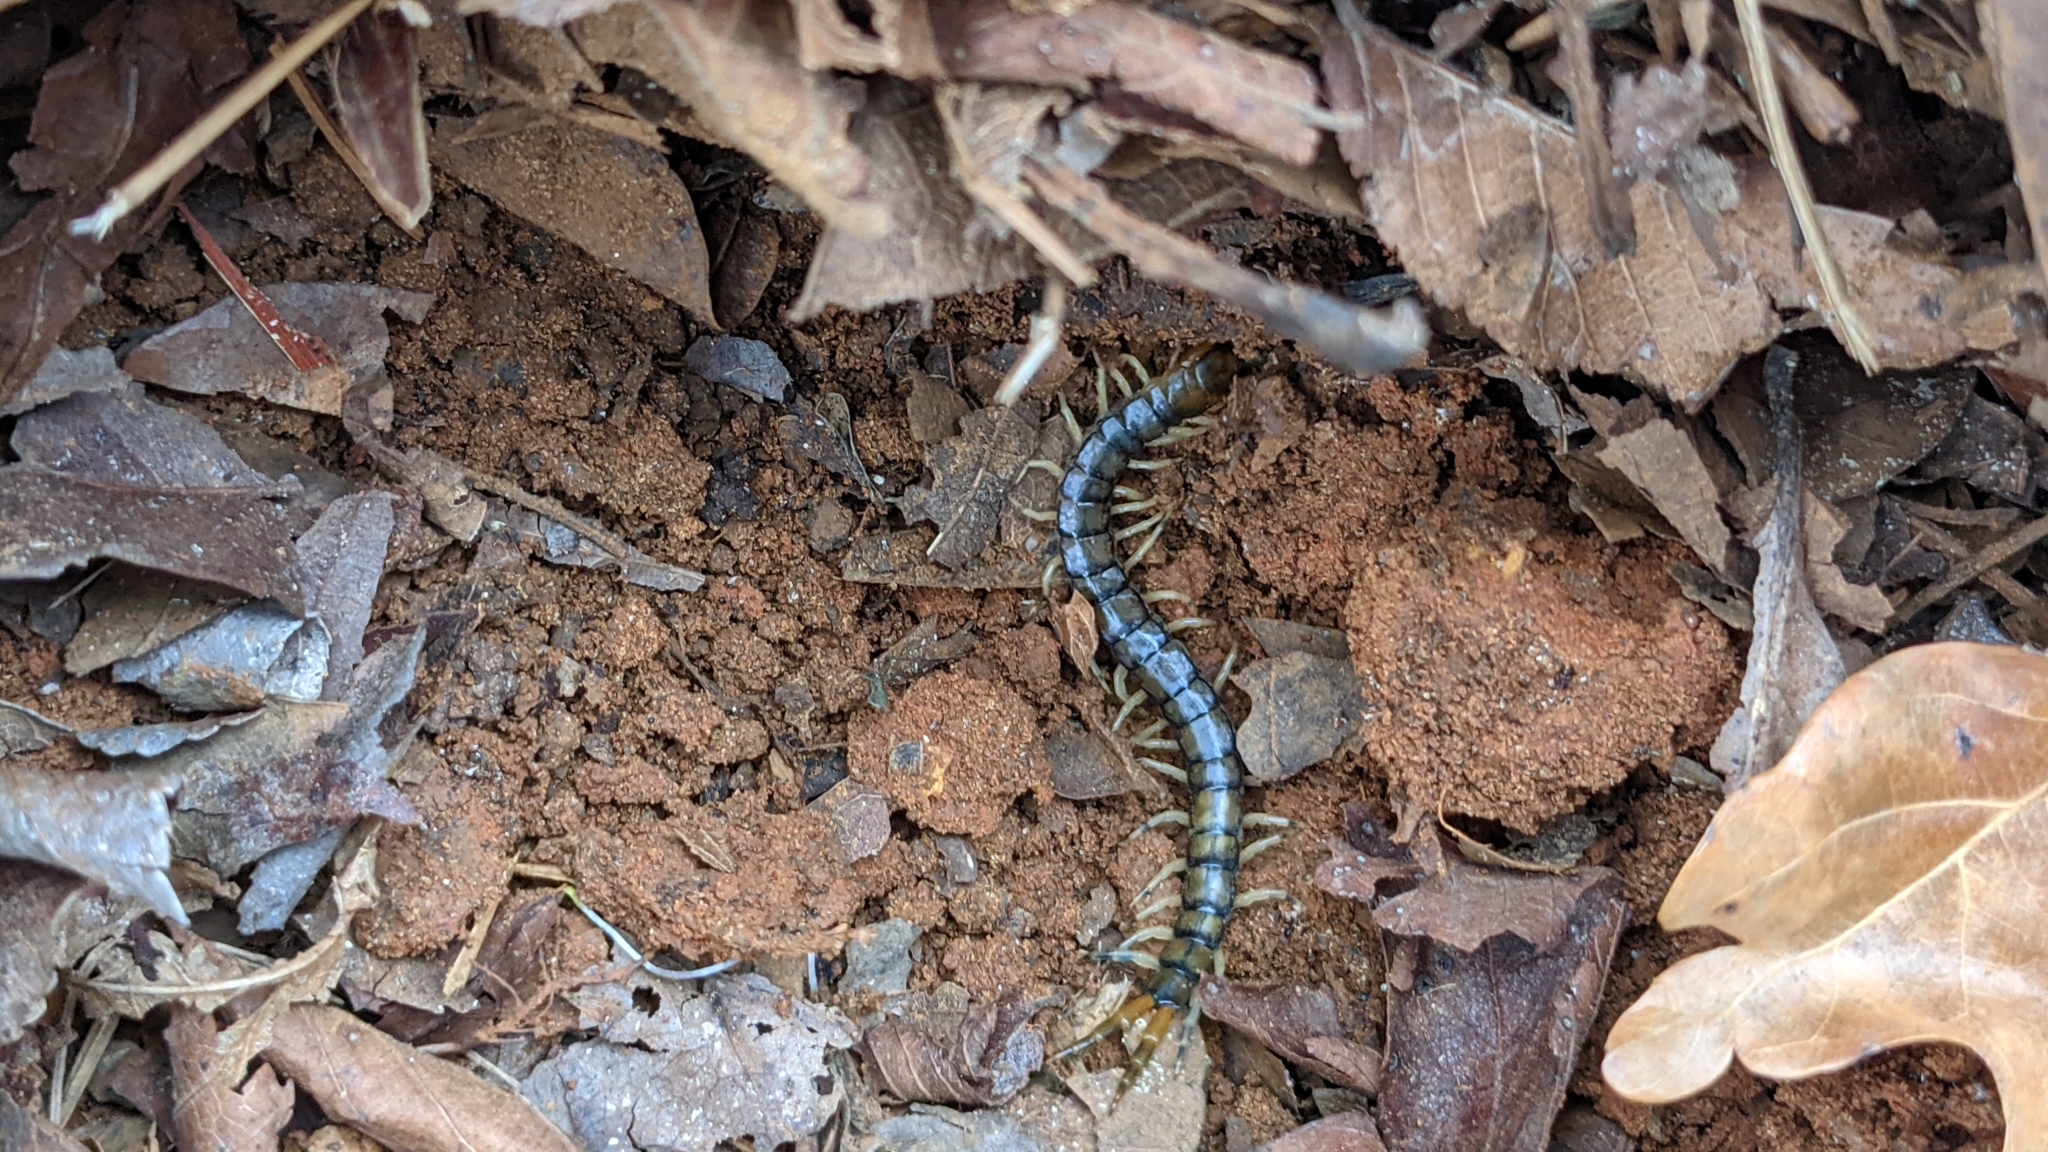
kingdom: Animalia
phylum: Arthropoda
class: Chilopoda
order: Scolopendromorpha
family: Scolopendridae
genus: Hemiscolopendra
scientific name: Hemiscolopendra marginata
